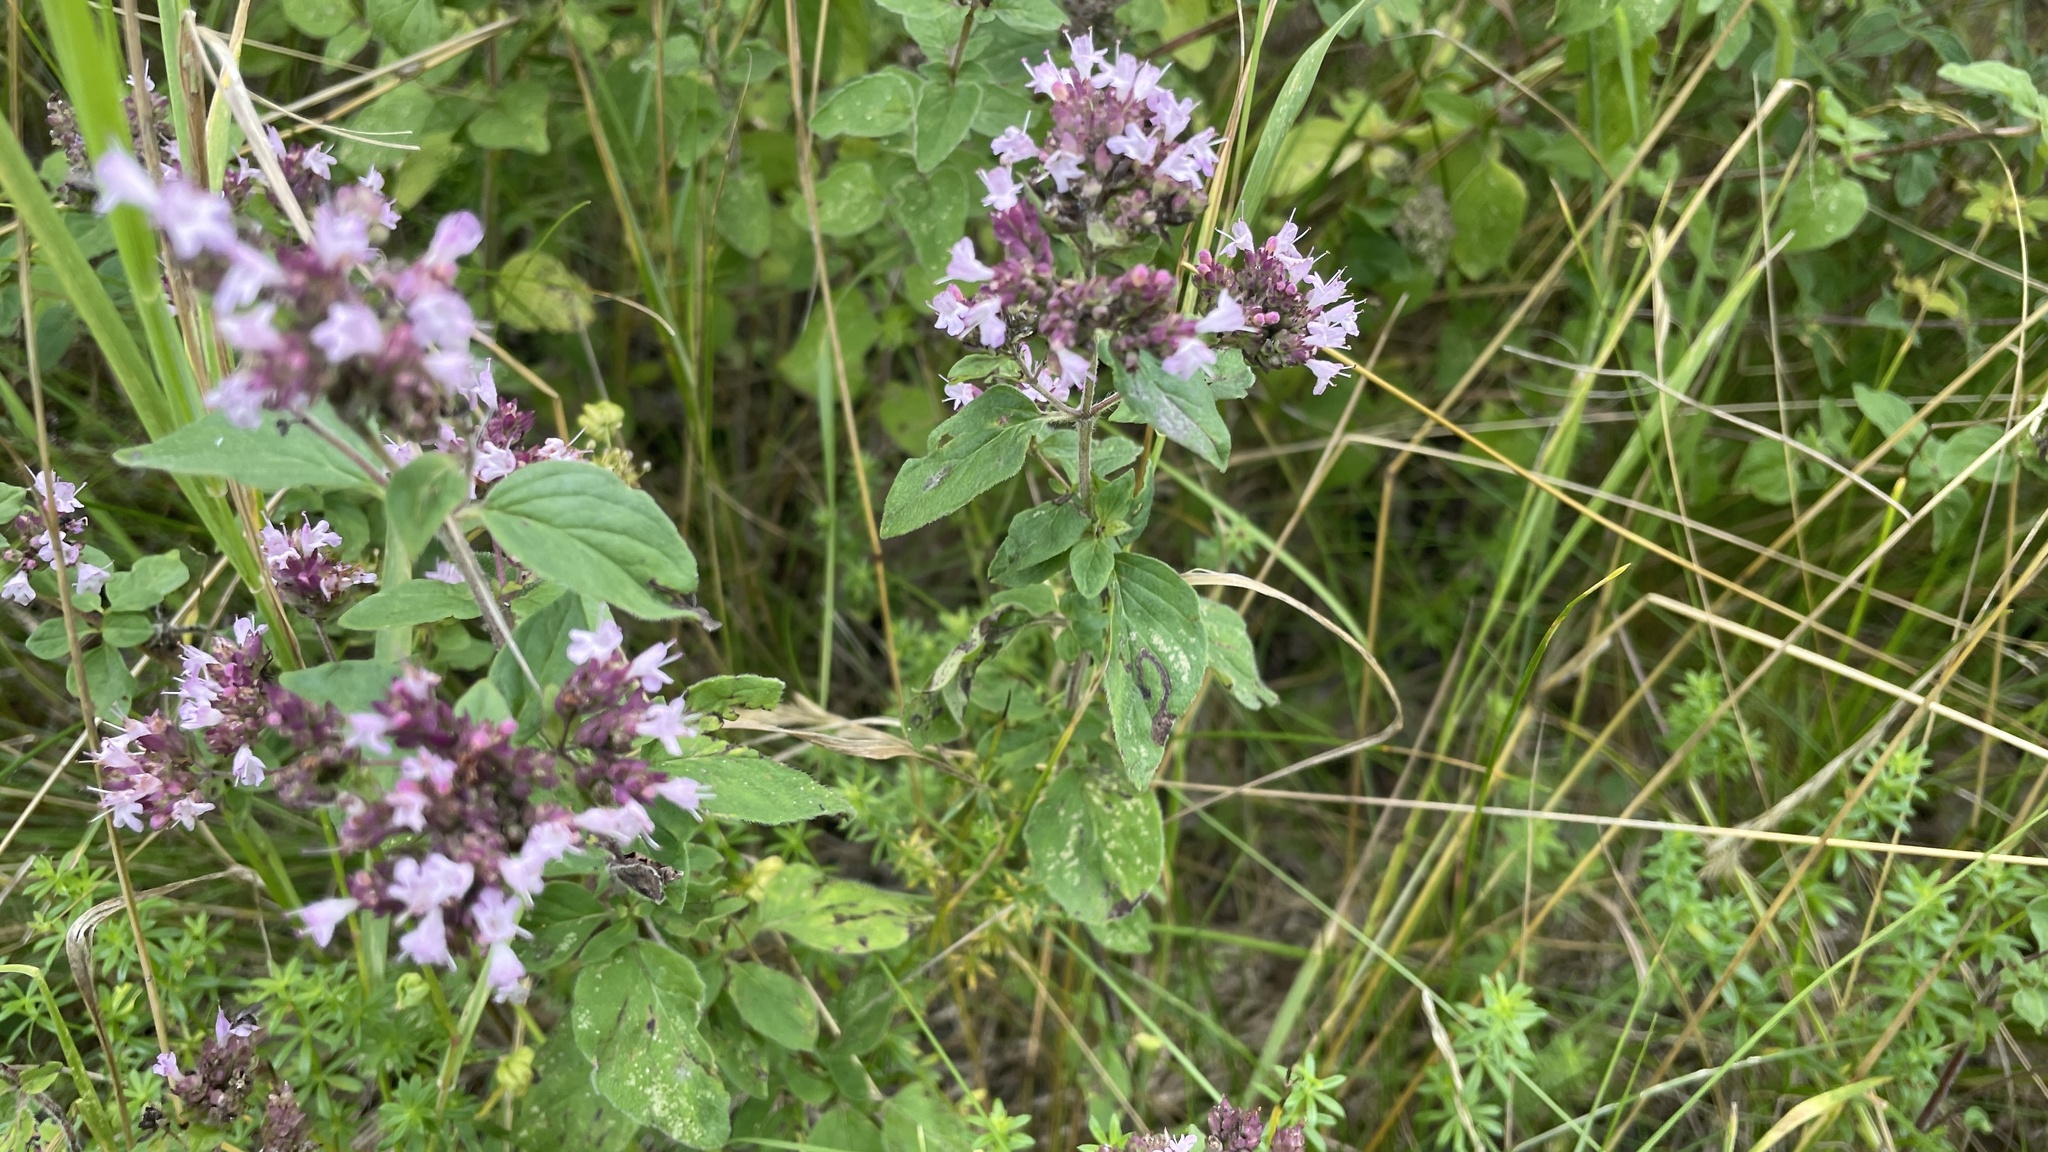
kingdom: Plantae
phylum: Tracheophyta
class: Magnoliopsida
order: Lamiales
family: Lamiaceae
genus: Origanum
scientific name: Origanum vulgare
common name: Wild marjoram
